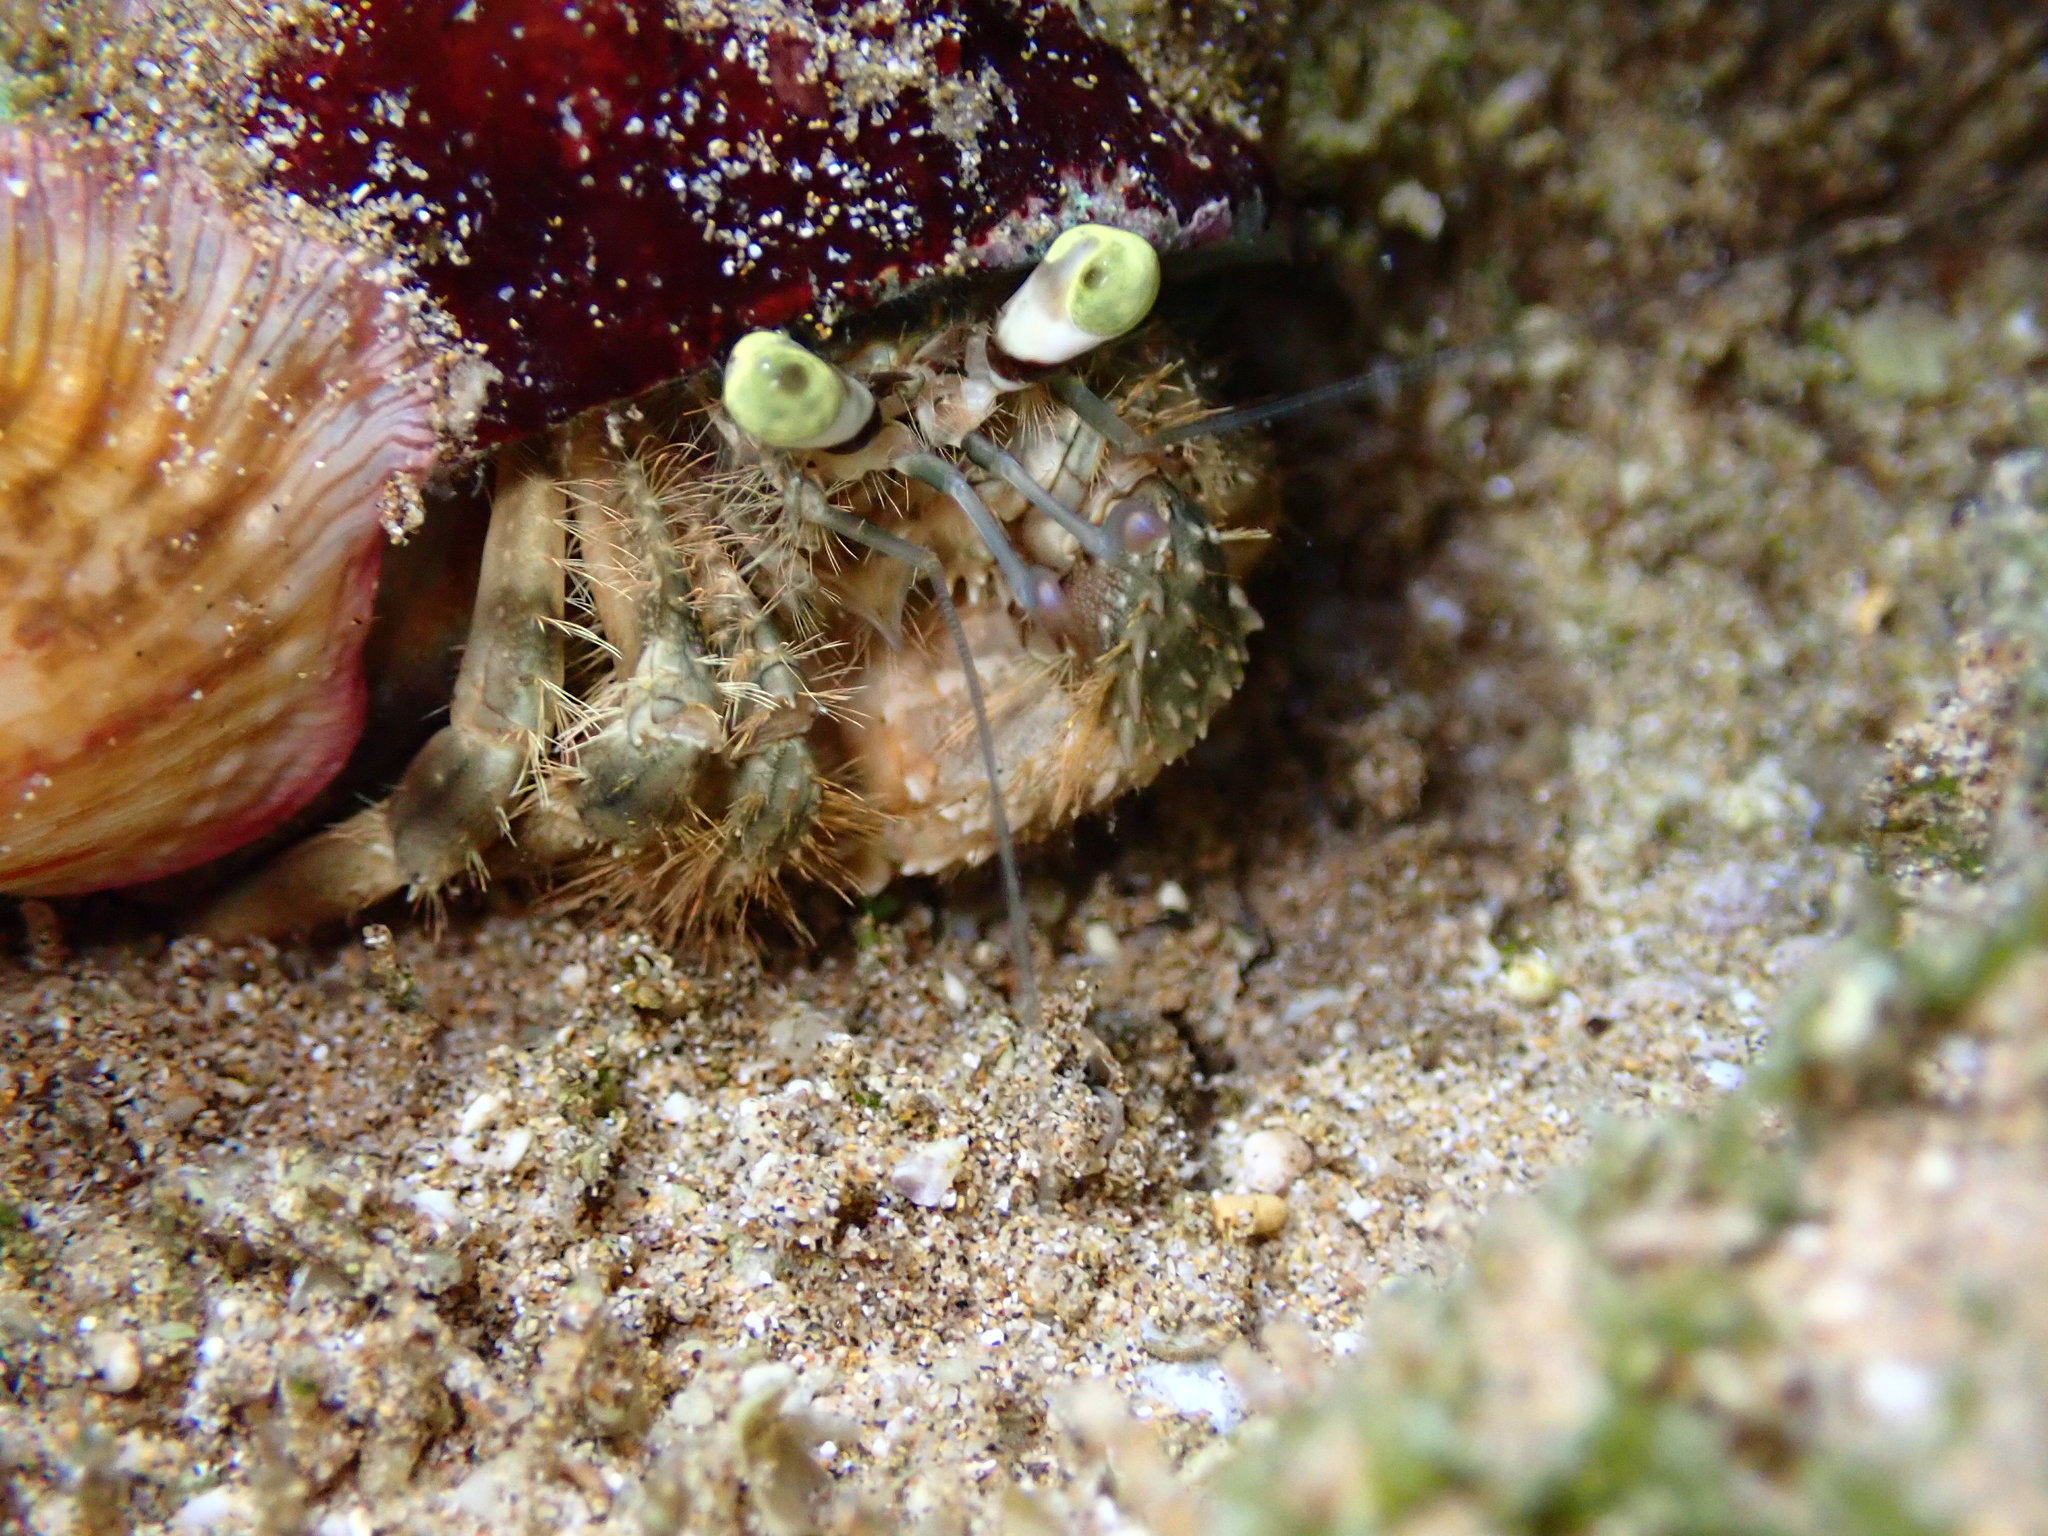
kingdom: Animalia
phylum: Arthropoda
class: Malacostraca
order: Decapoda
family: Diogenidae
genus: Dardanus
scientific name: Dardanus deformis
